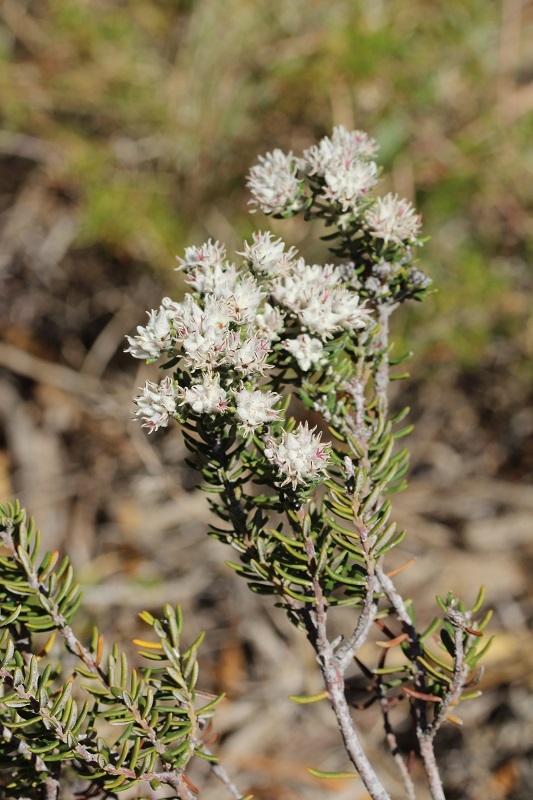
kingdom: Plantae
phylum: Tracheophyta
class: Magnoliopsida
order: Rosales
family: Rhamnaceae
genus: Trichocephalus
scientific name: Trichocephalus stipularis
